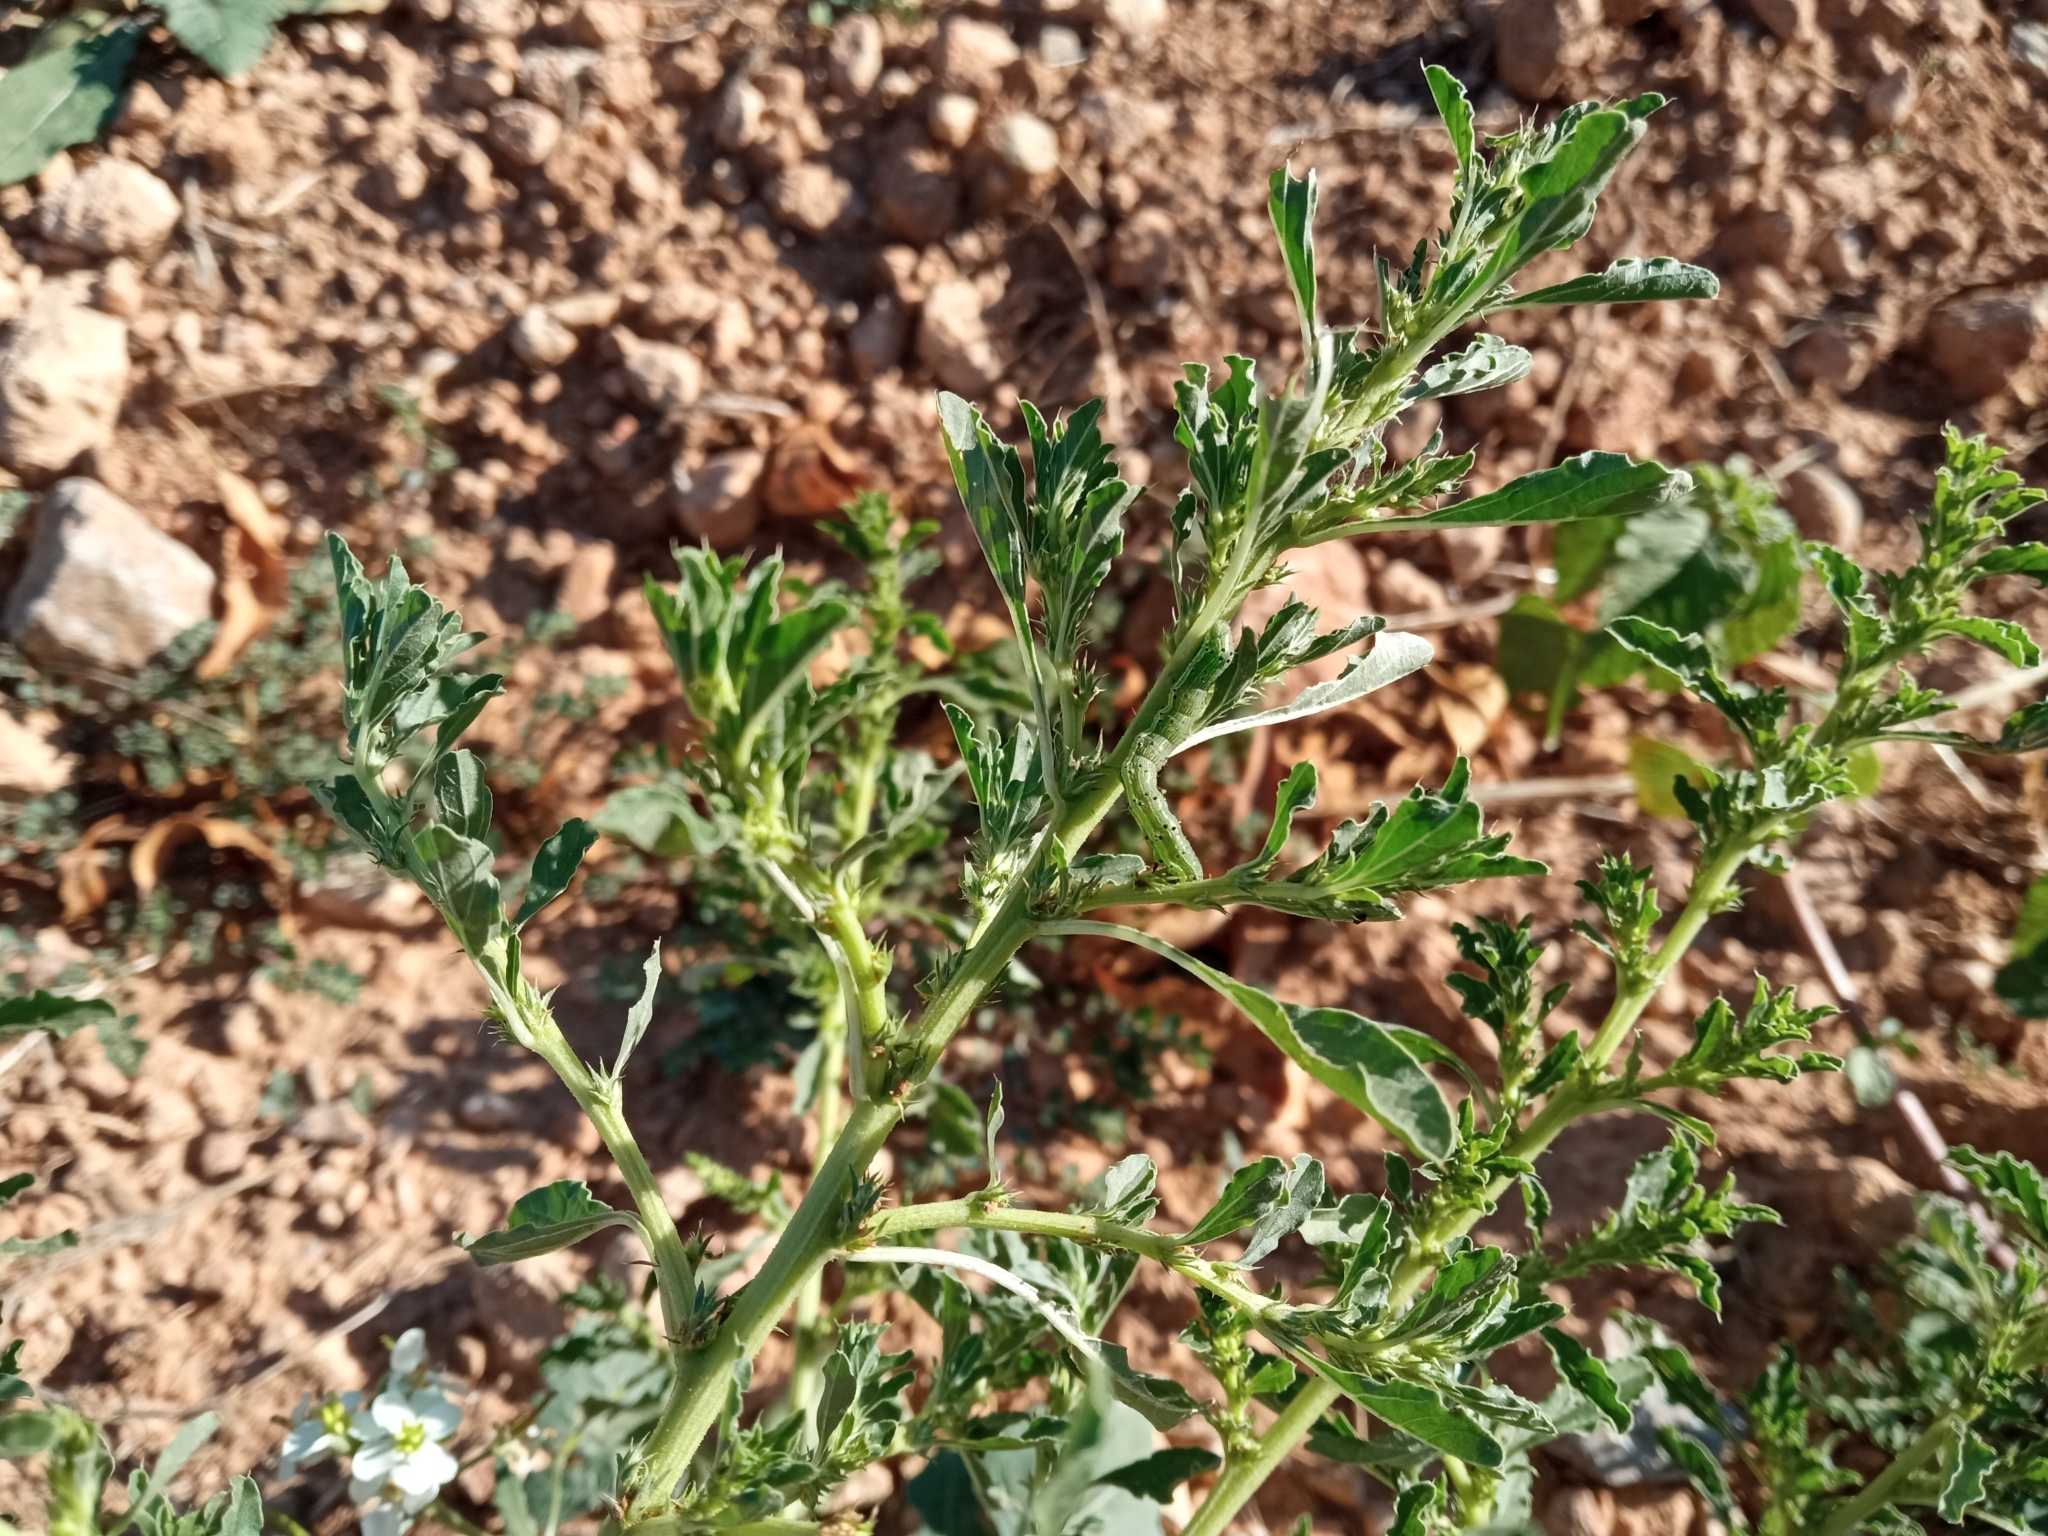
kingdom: Plantae
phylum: Tracheophyta
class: Magnoliopsida
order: Caryophyllales
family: Amaranthaceae
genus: Amaranthus
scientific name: Amaranthus albus
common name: White pigweed
